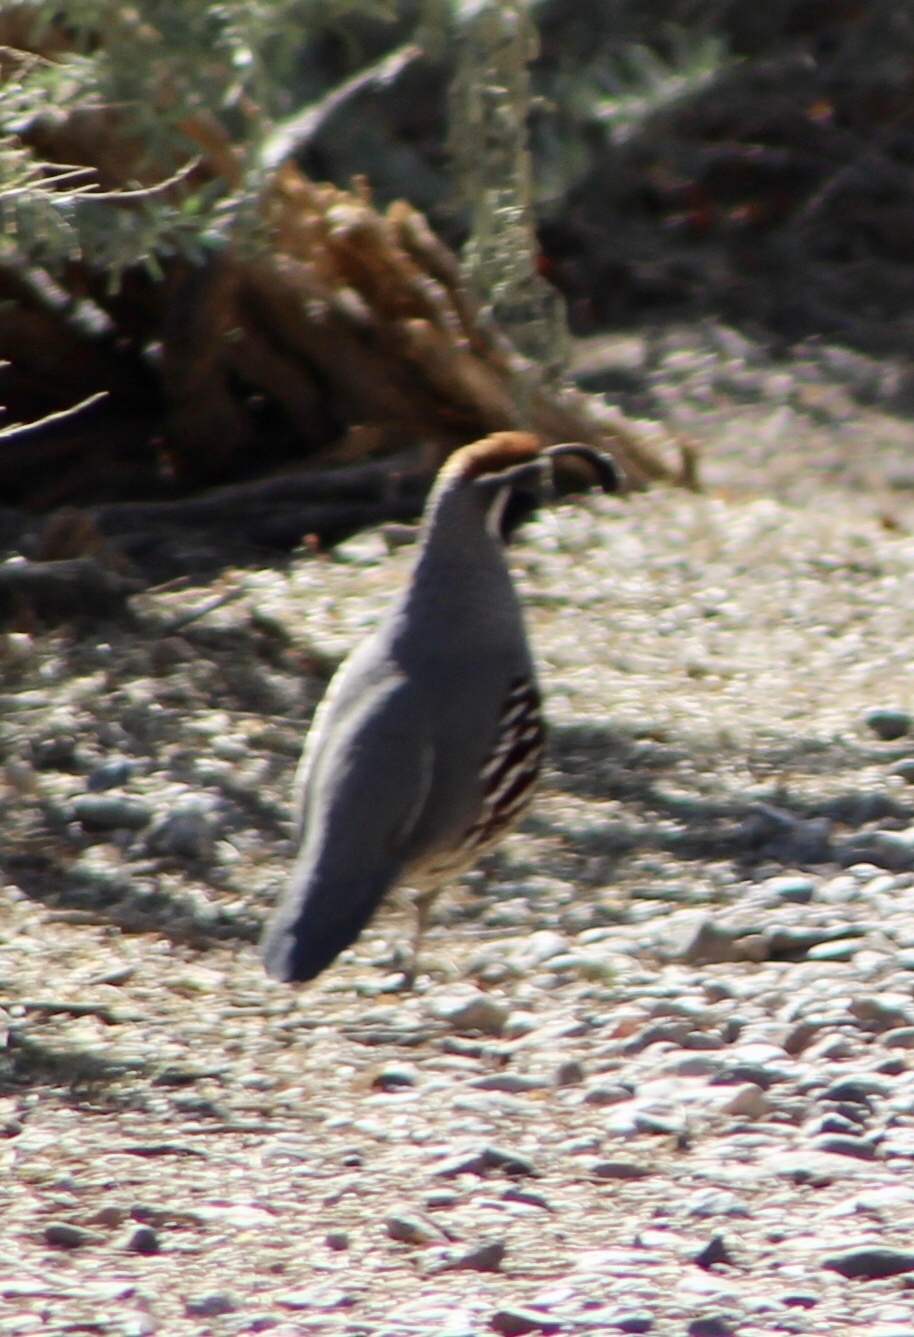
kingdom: Animalia
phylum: Chordata
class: Aves
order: Galliformes
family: Odontophoridae
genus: Callipepla
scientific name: Callipepla gambelii
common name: Gambel's quail
